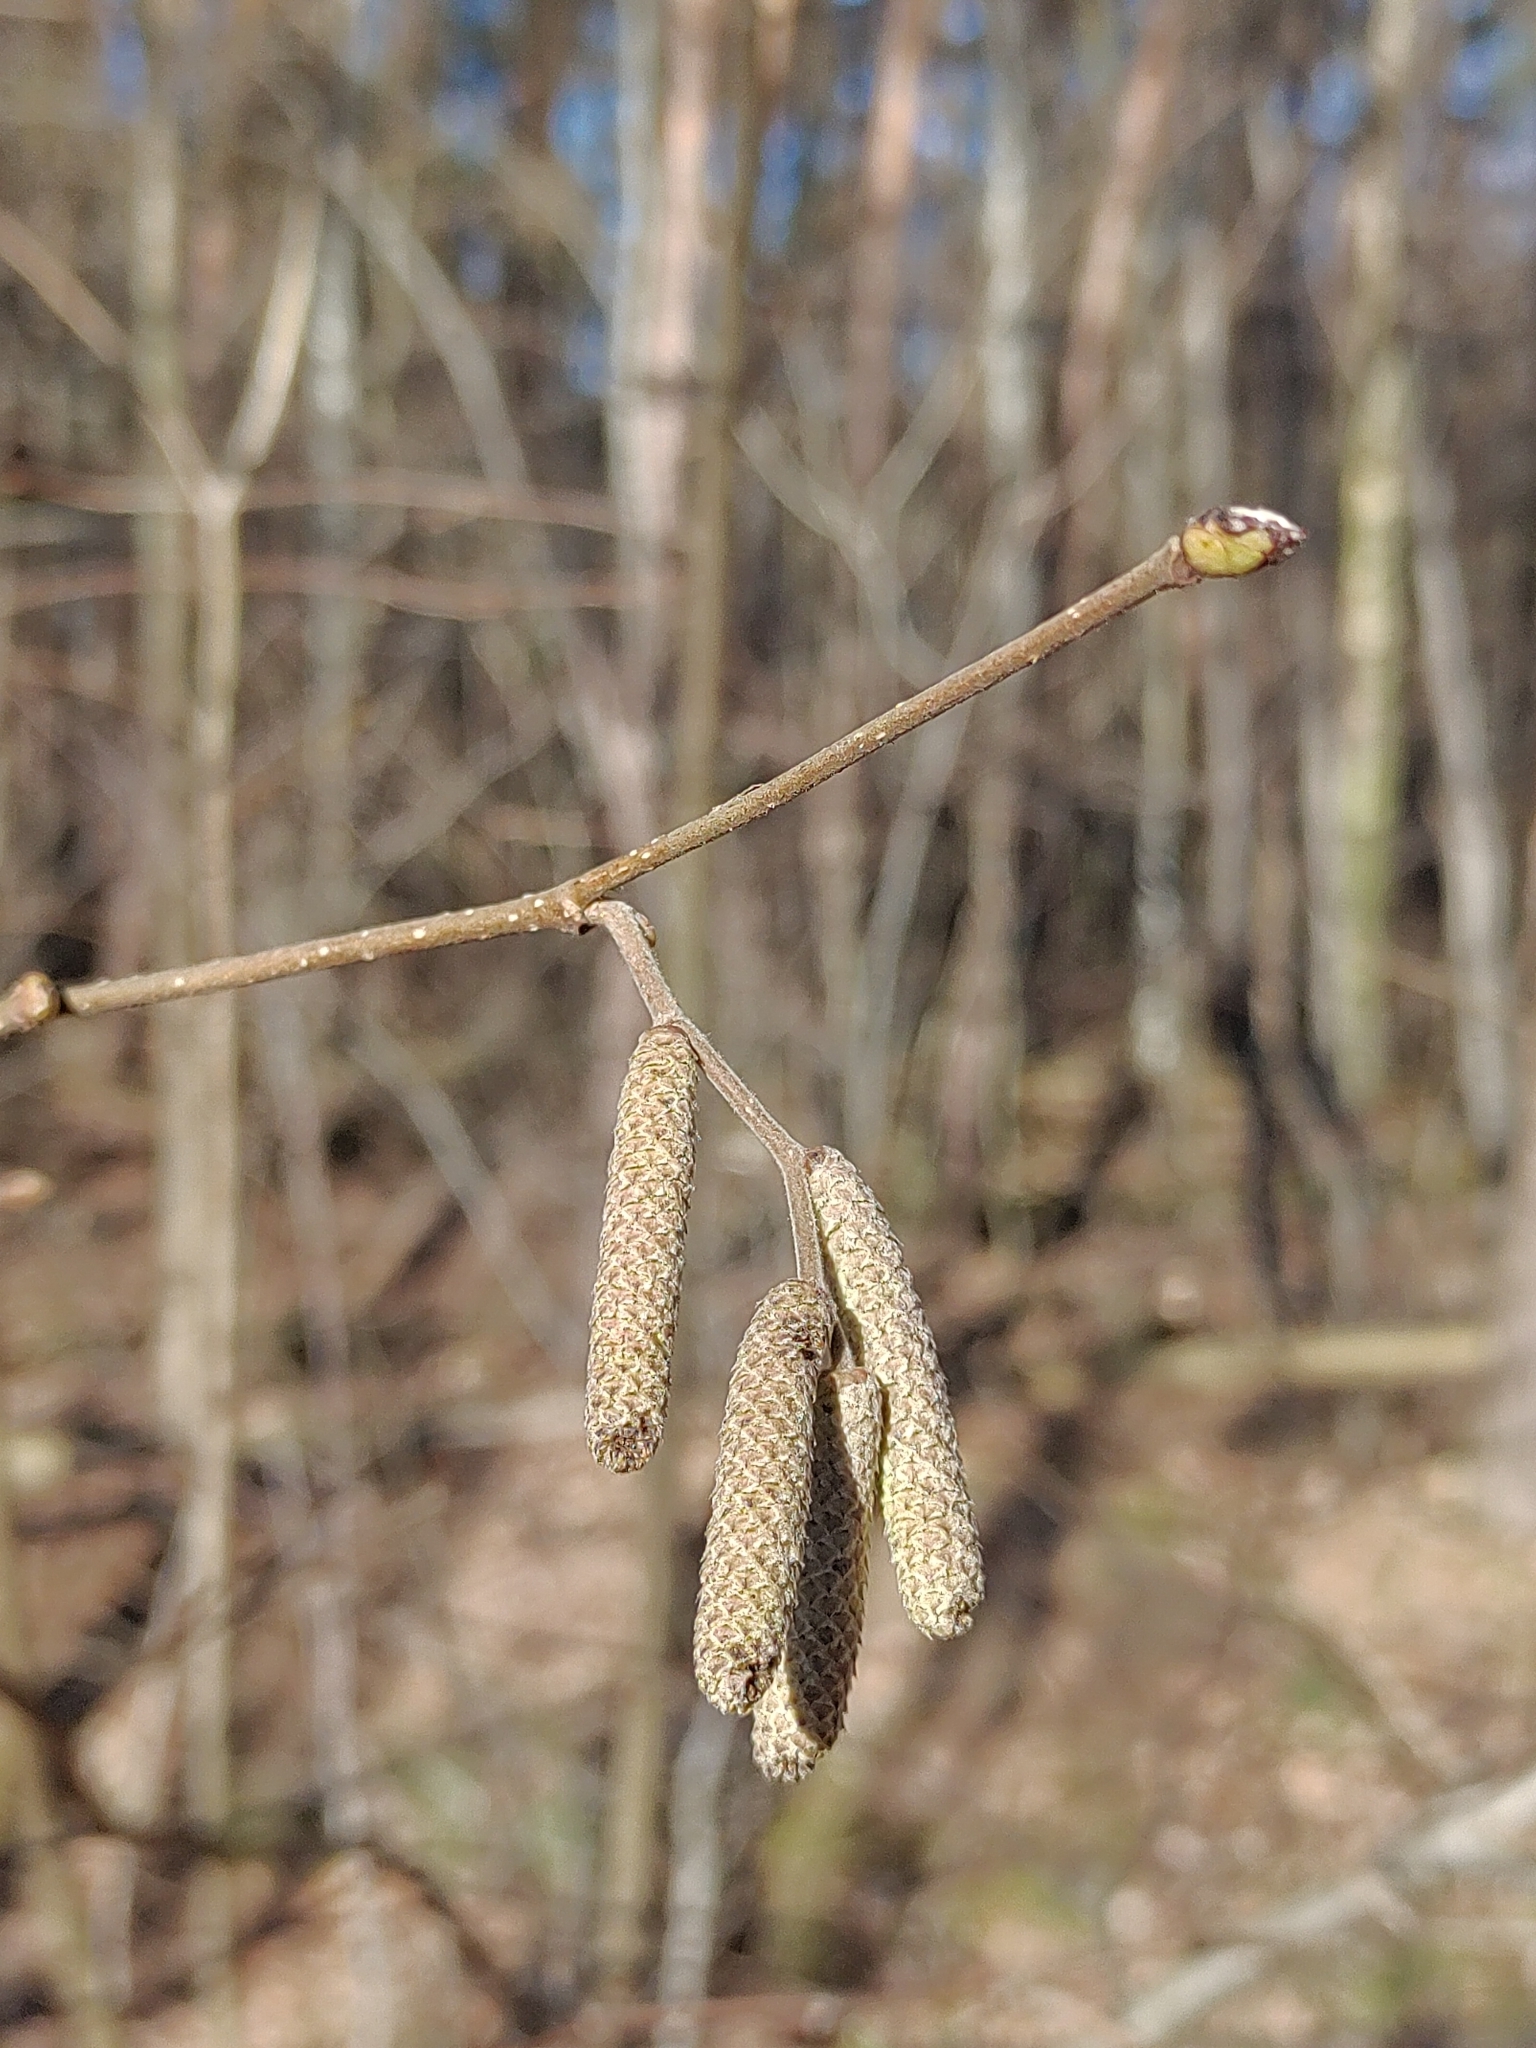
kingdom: Plantae
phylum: Tracheophyta
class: Magnoliopsida
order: Fagales
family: Betulaceae
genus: Corylus
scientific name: Corylus avellana
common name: European hazel
